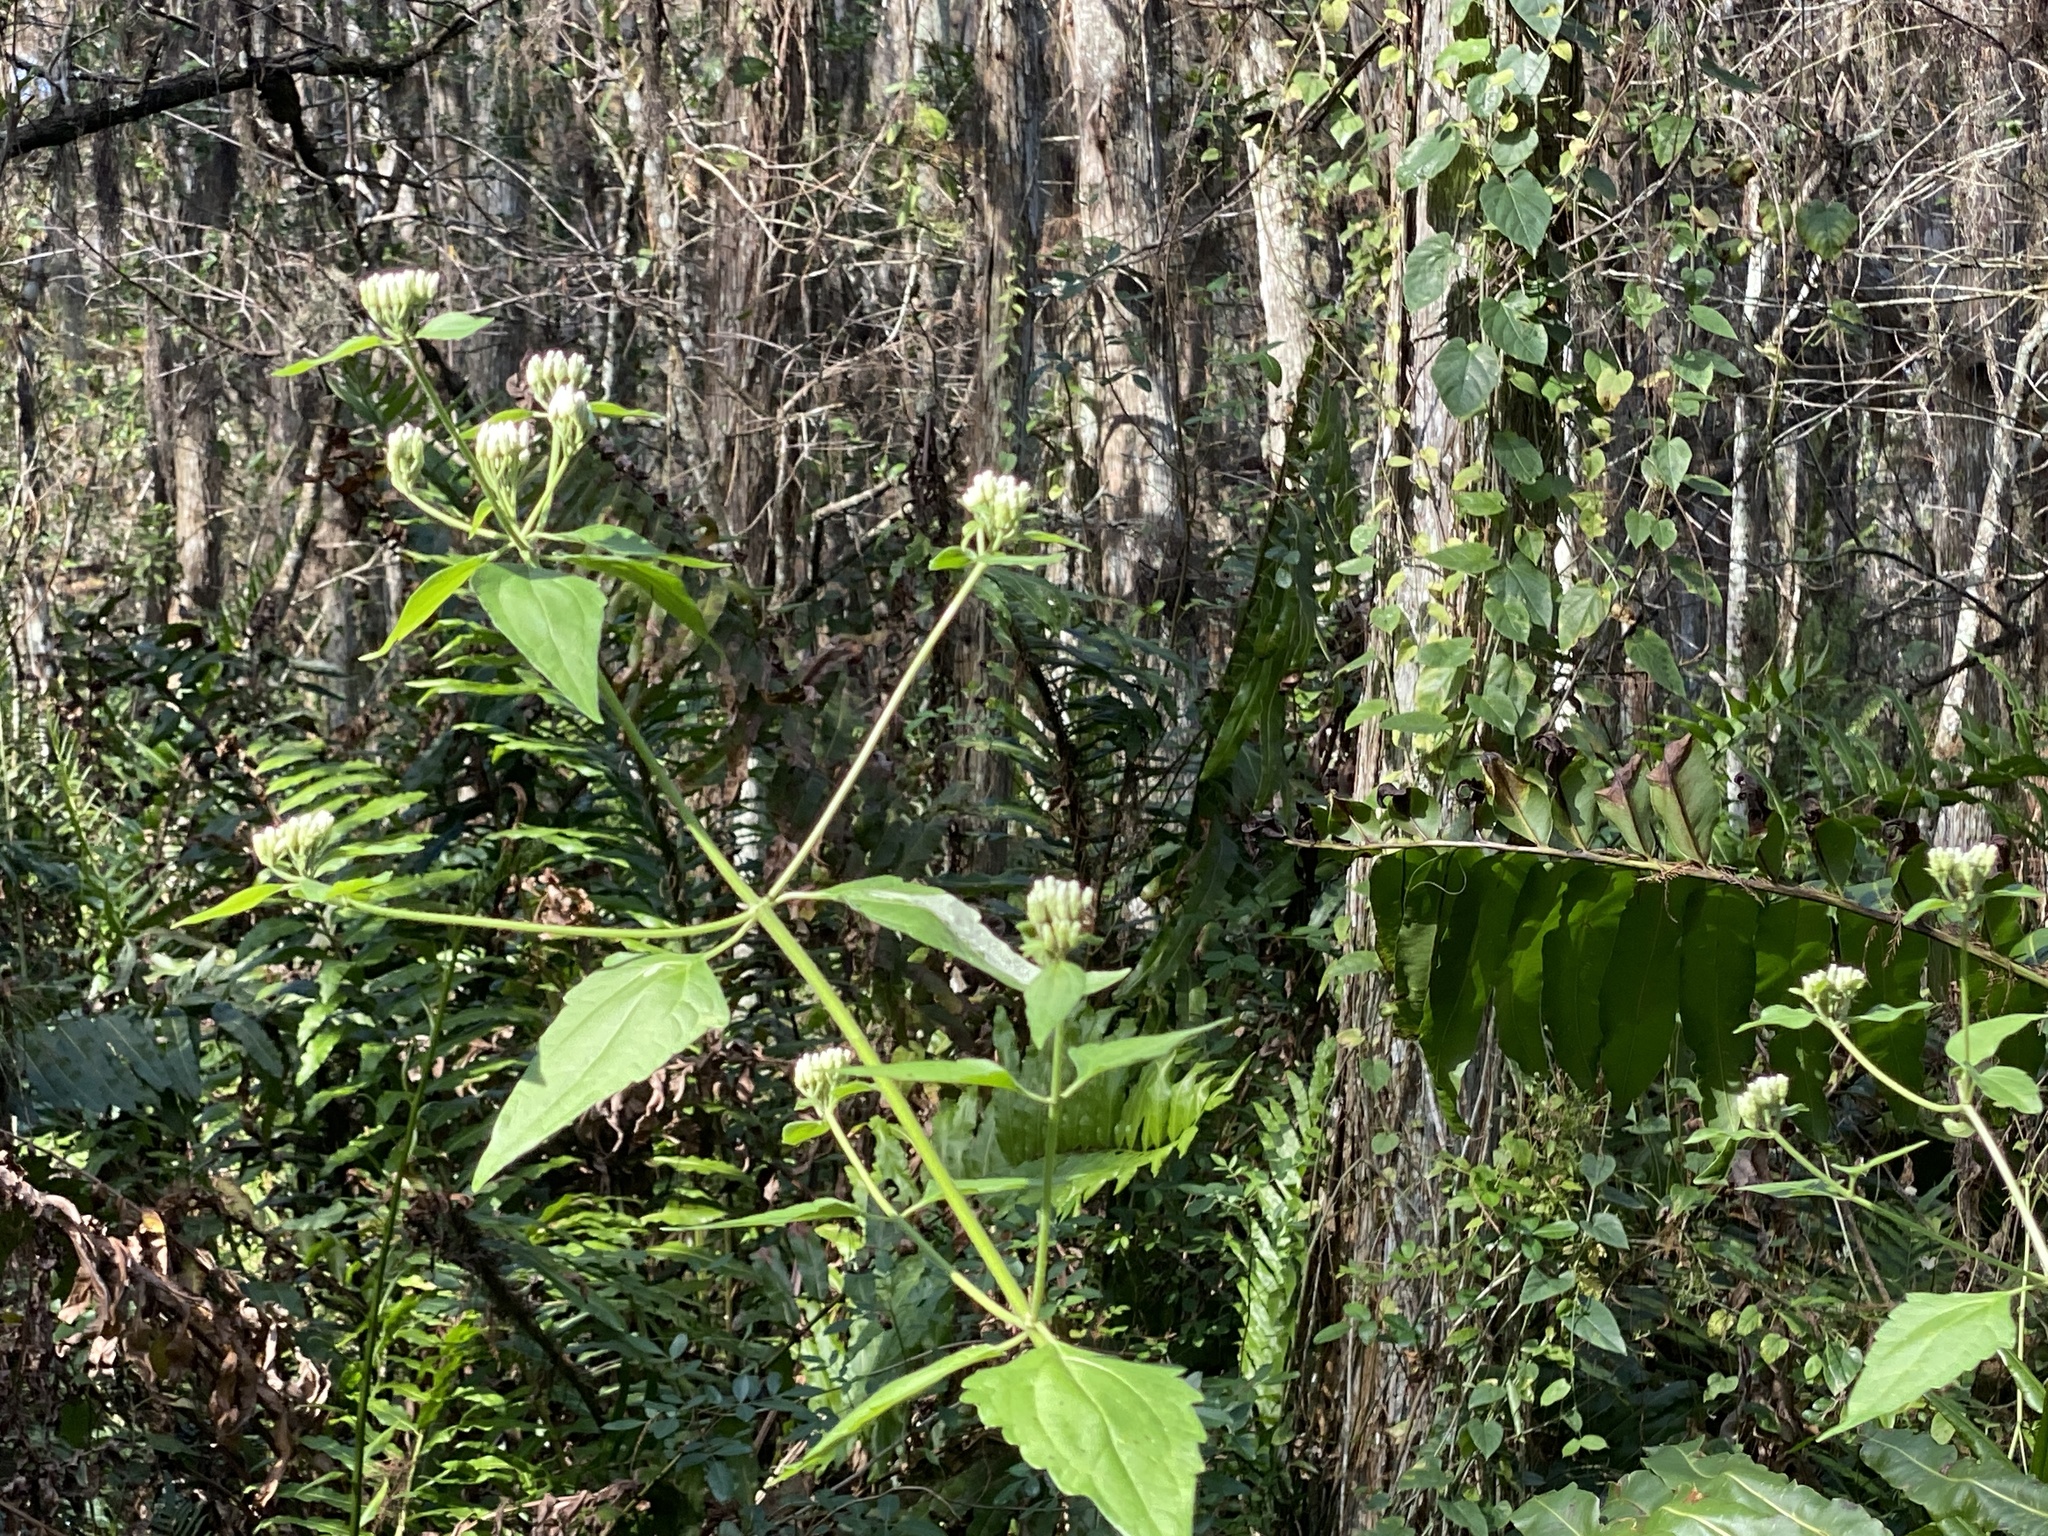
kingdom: Plantae
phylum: Tracheophyta
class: Magnoliopsida
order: Asterales
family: Asteraceae
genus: Chromolaena
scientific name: Chromolaena odorata
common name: Siamweed
